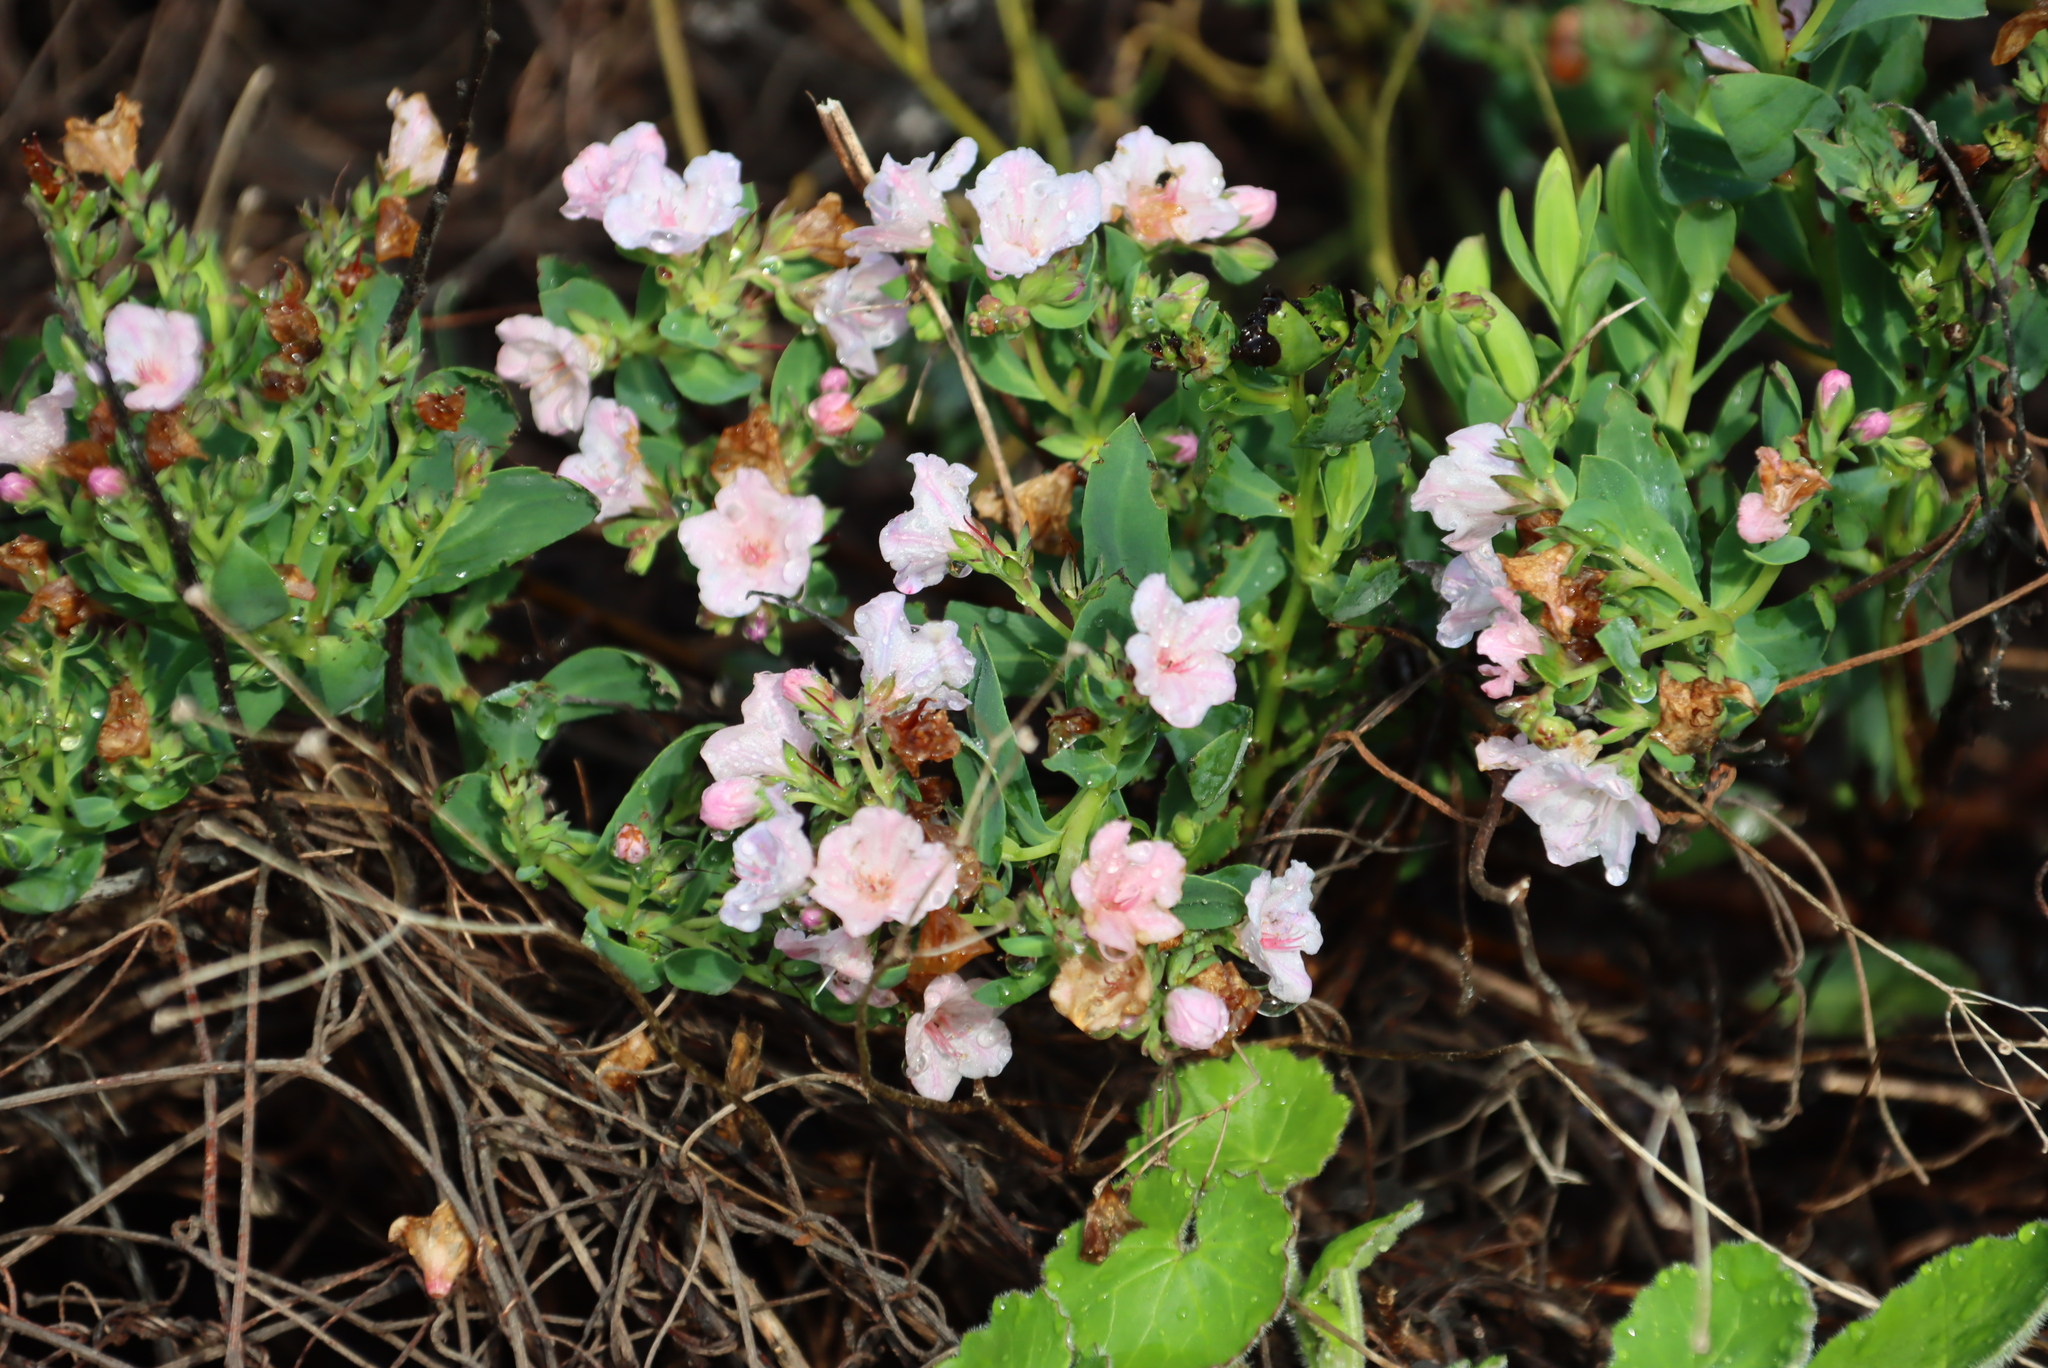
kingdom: Plantae
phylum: Tracheophyta
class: Magnoliopsida
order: Boraginales
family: Boraginaceae
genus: Lobostemon
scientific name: Lobostemon glaucophyllus
